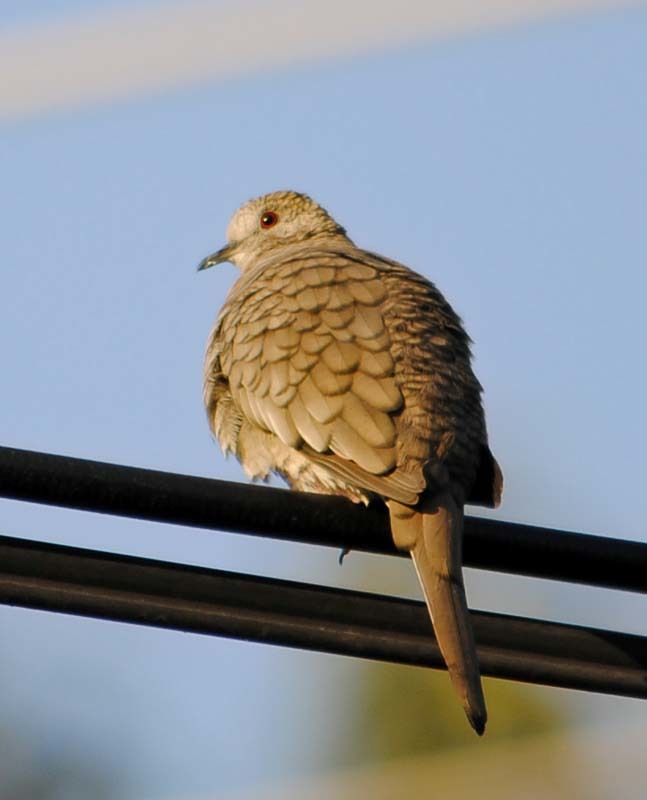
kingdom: Animalia
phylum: Chordata
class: Aves
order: Columbiformes
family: Columbidae
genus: Columbina
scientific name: Columbina inca
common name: Inca dove
